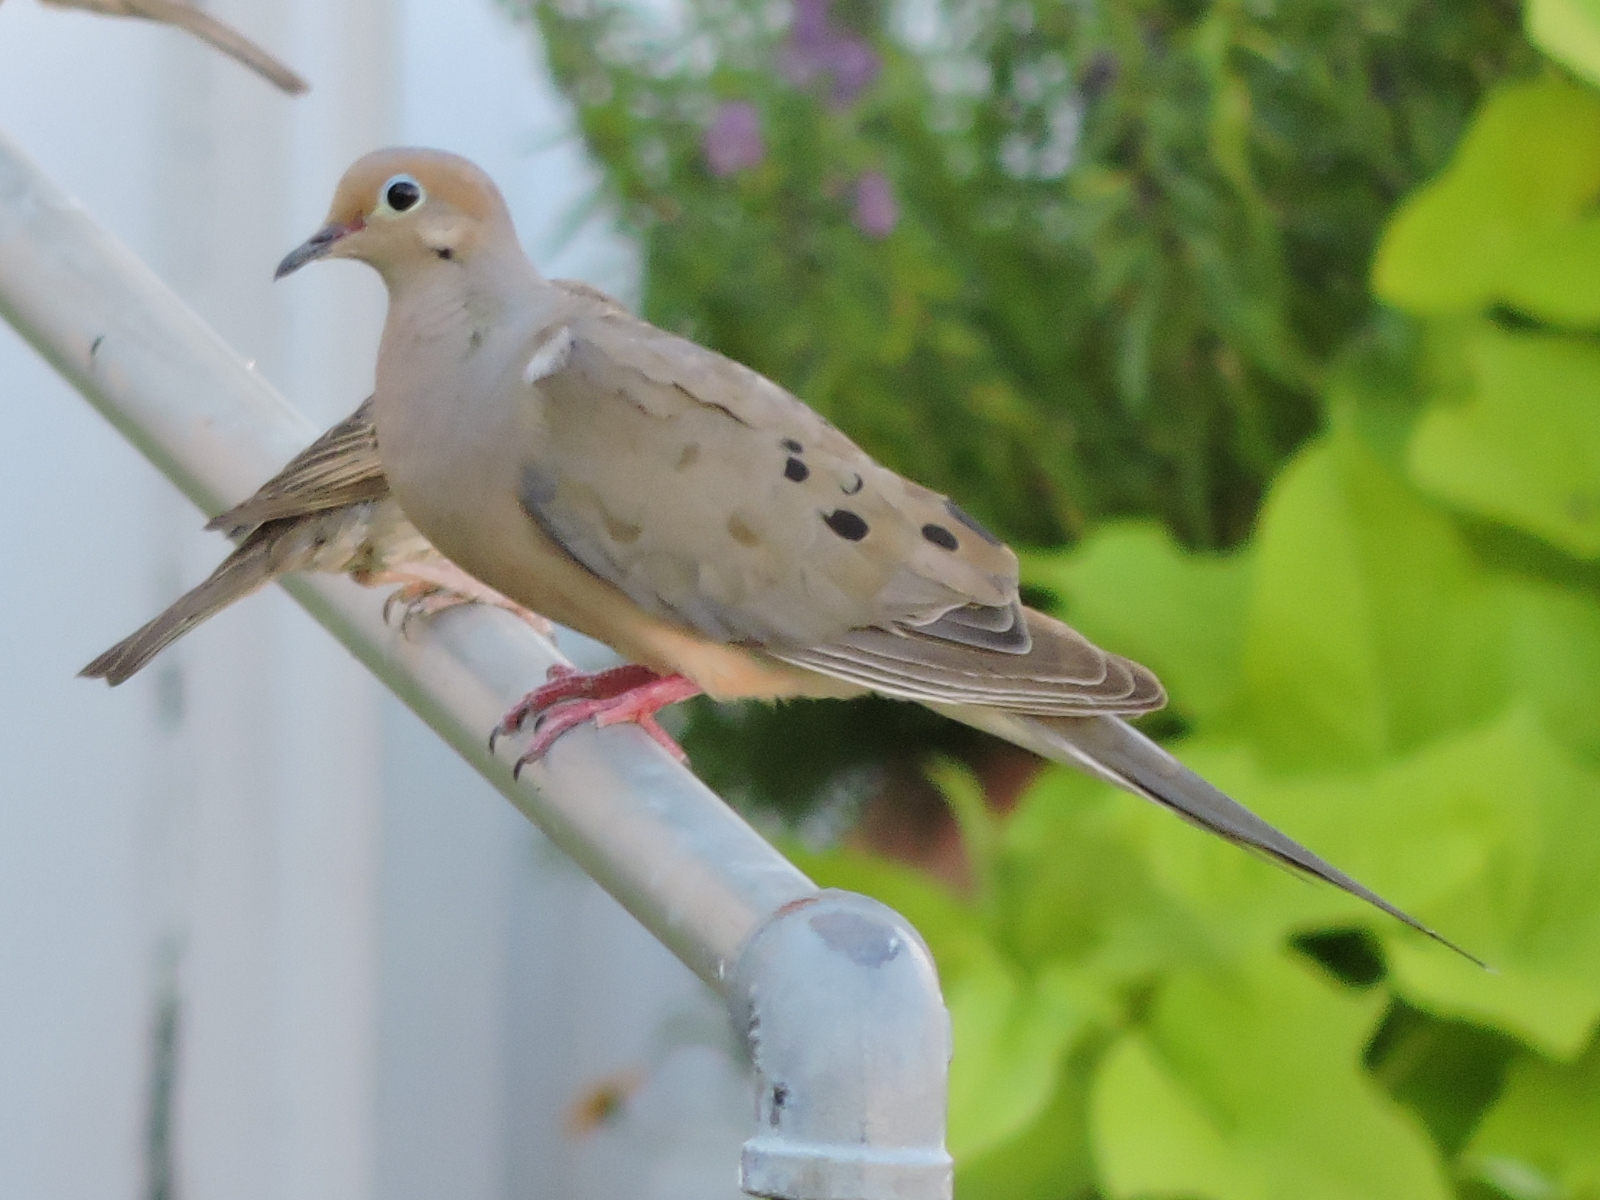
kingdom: Animalia
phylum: Chordata
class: Aves
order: Columbiformes
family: Columbidae
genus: Zenaida
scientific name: Zenaida macroura
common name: Mourning dove
